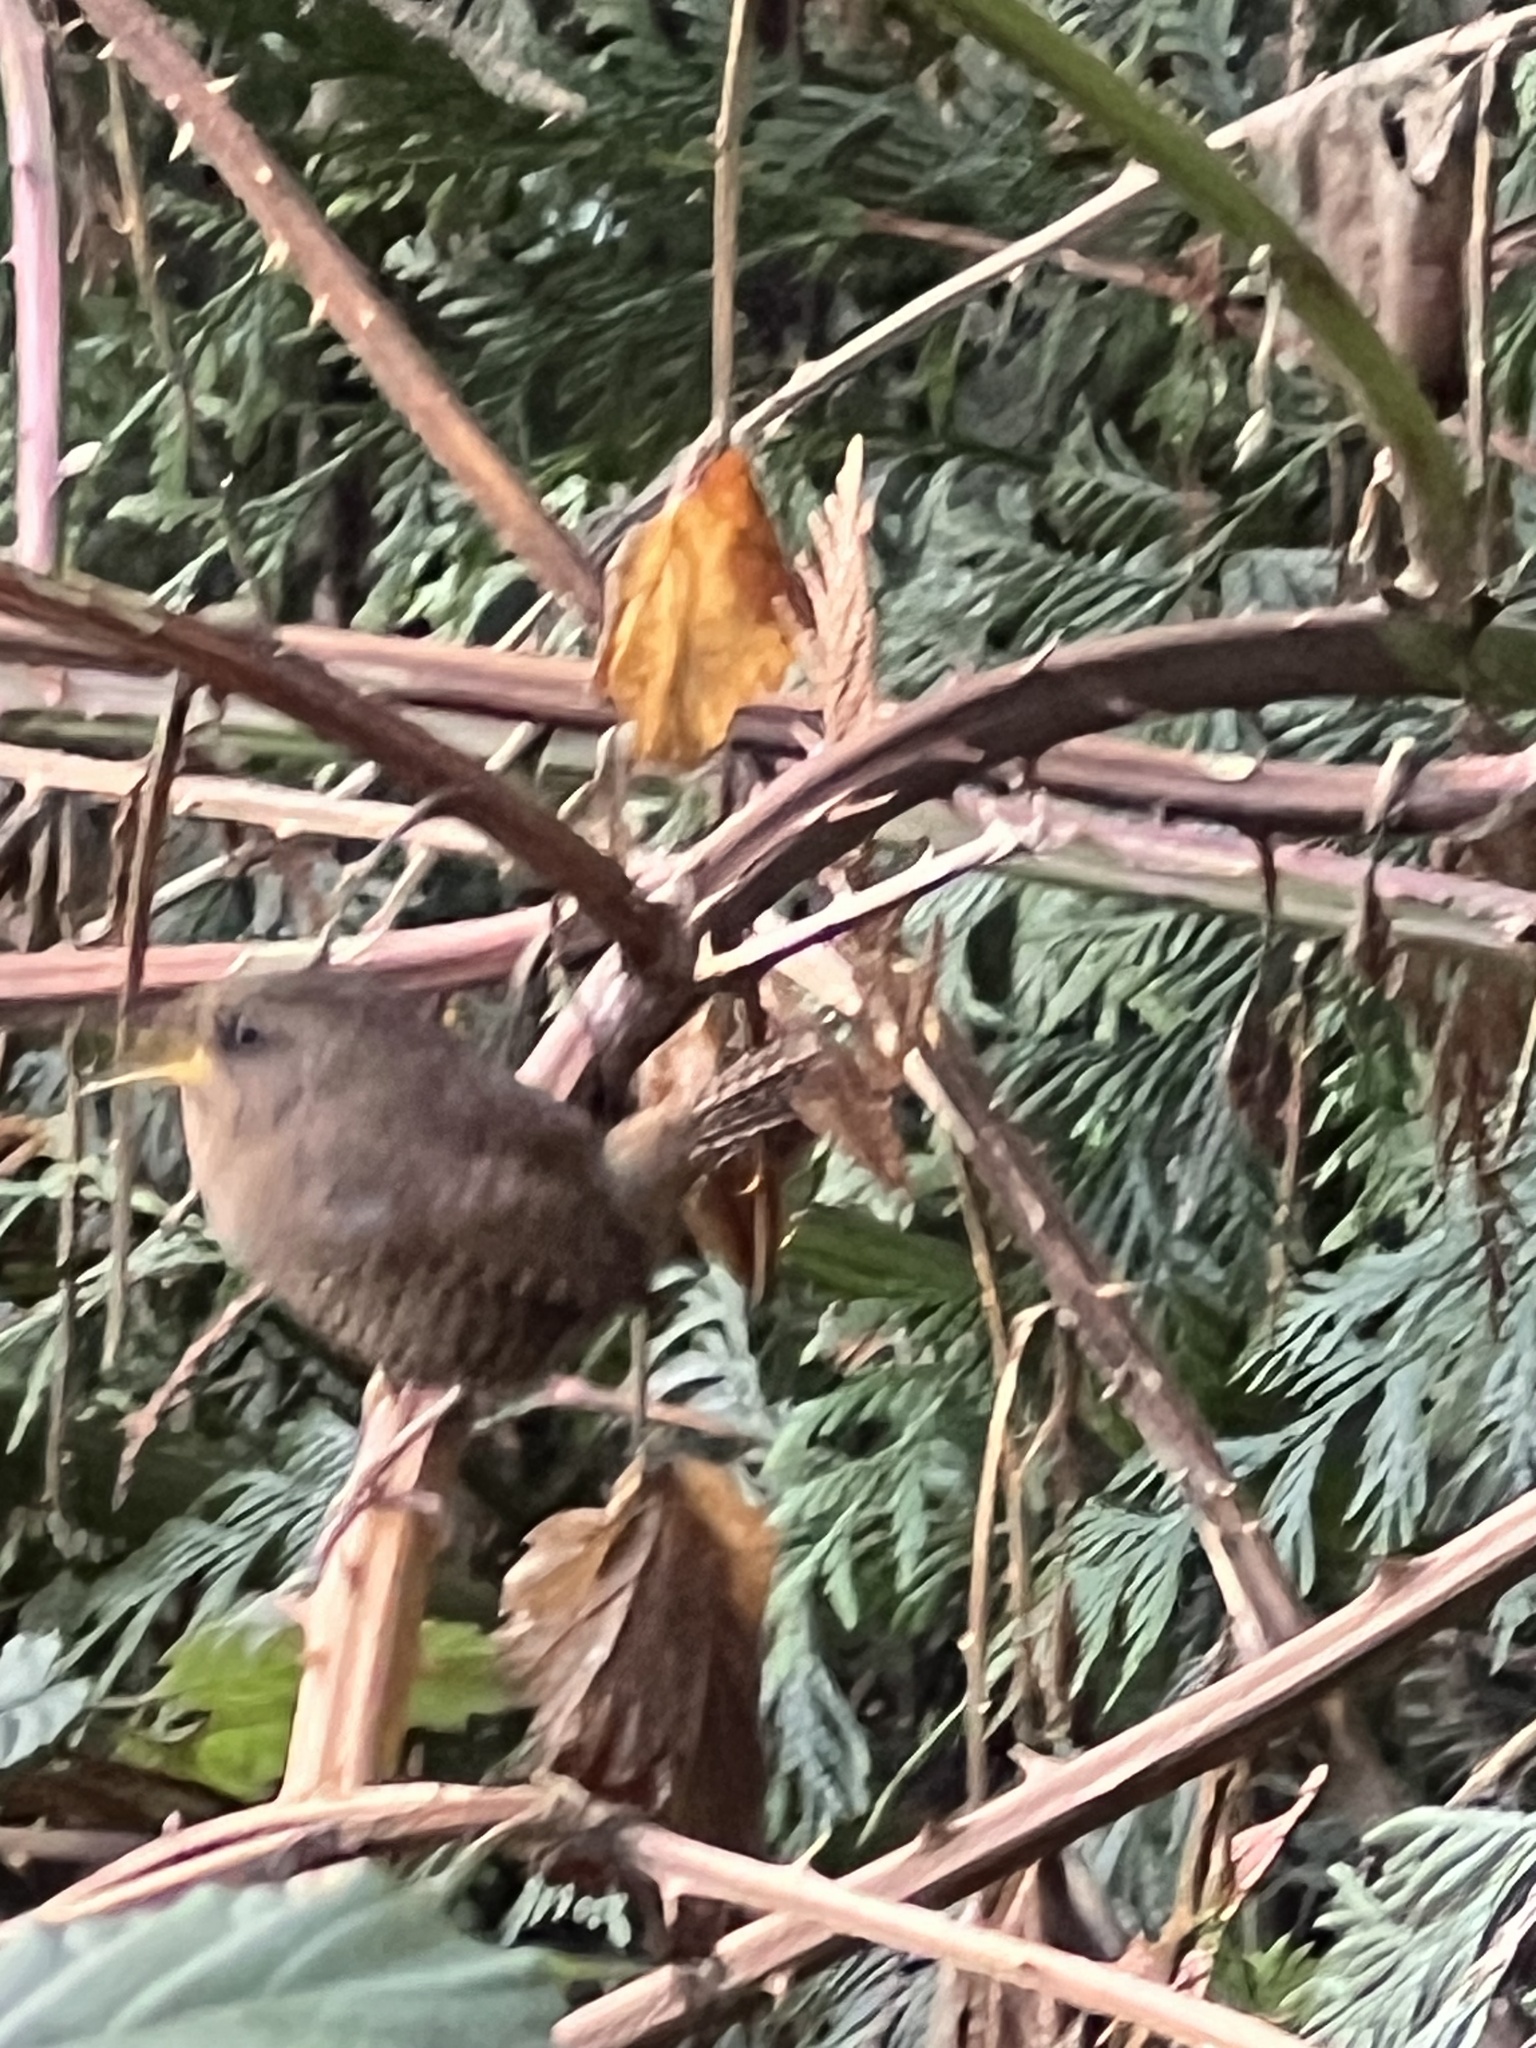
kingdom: Animalia
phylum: Chordata
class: Aves
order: Passeriformes
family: Troglodytidae
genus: Troglodytes
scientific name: Troglodytes pacificus
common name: Pacific wren
